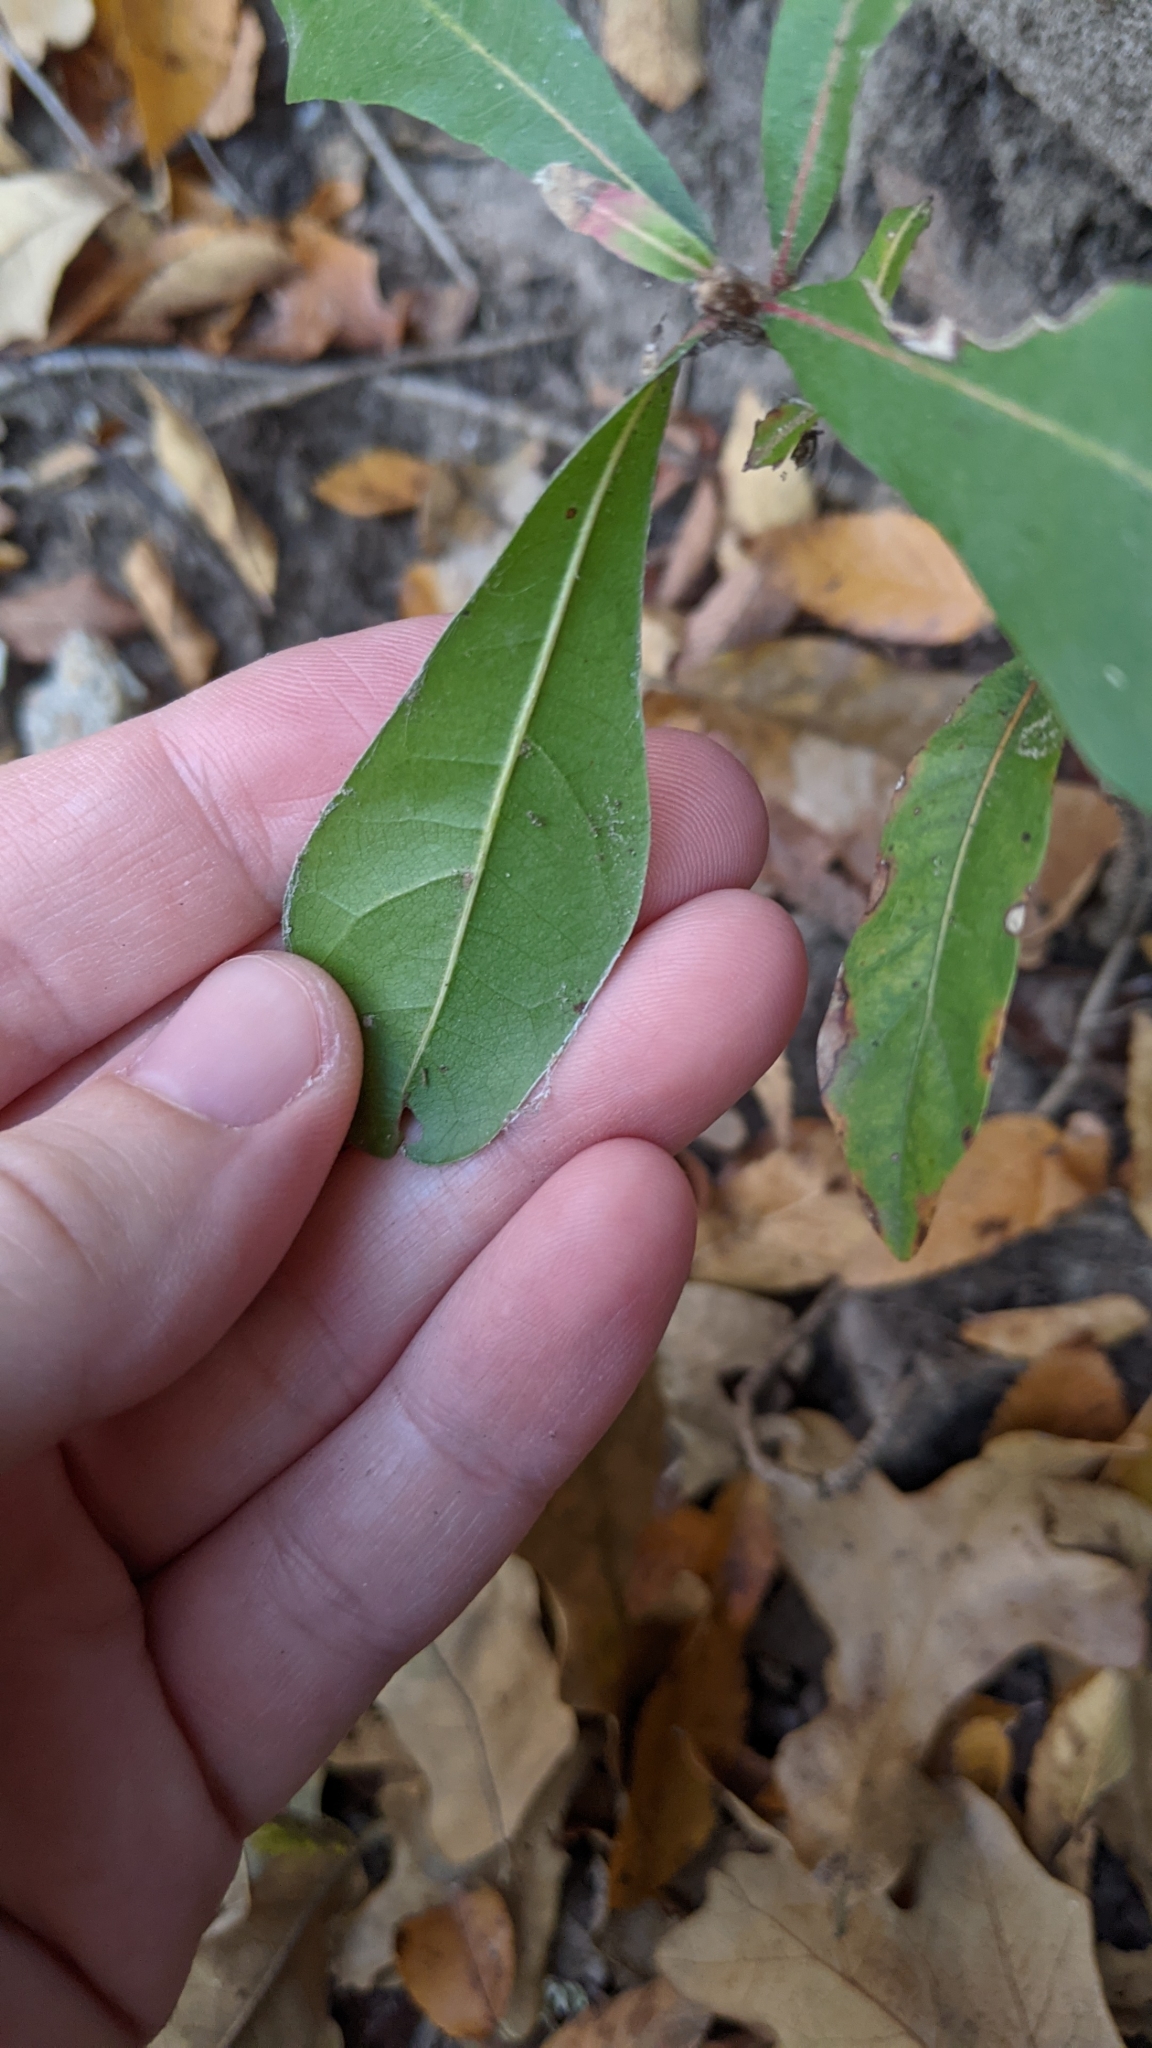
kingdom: Plantae
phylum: Tracheophyta
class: Magnoliopsida
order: Fagales
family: Fagaceae
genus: Quercus
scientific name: Quercus nigra
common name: Water oak
